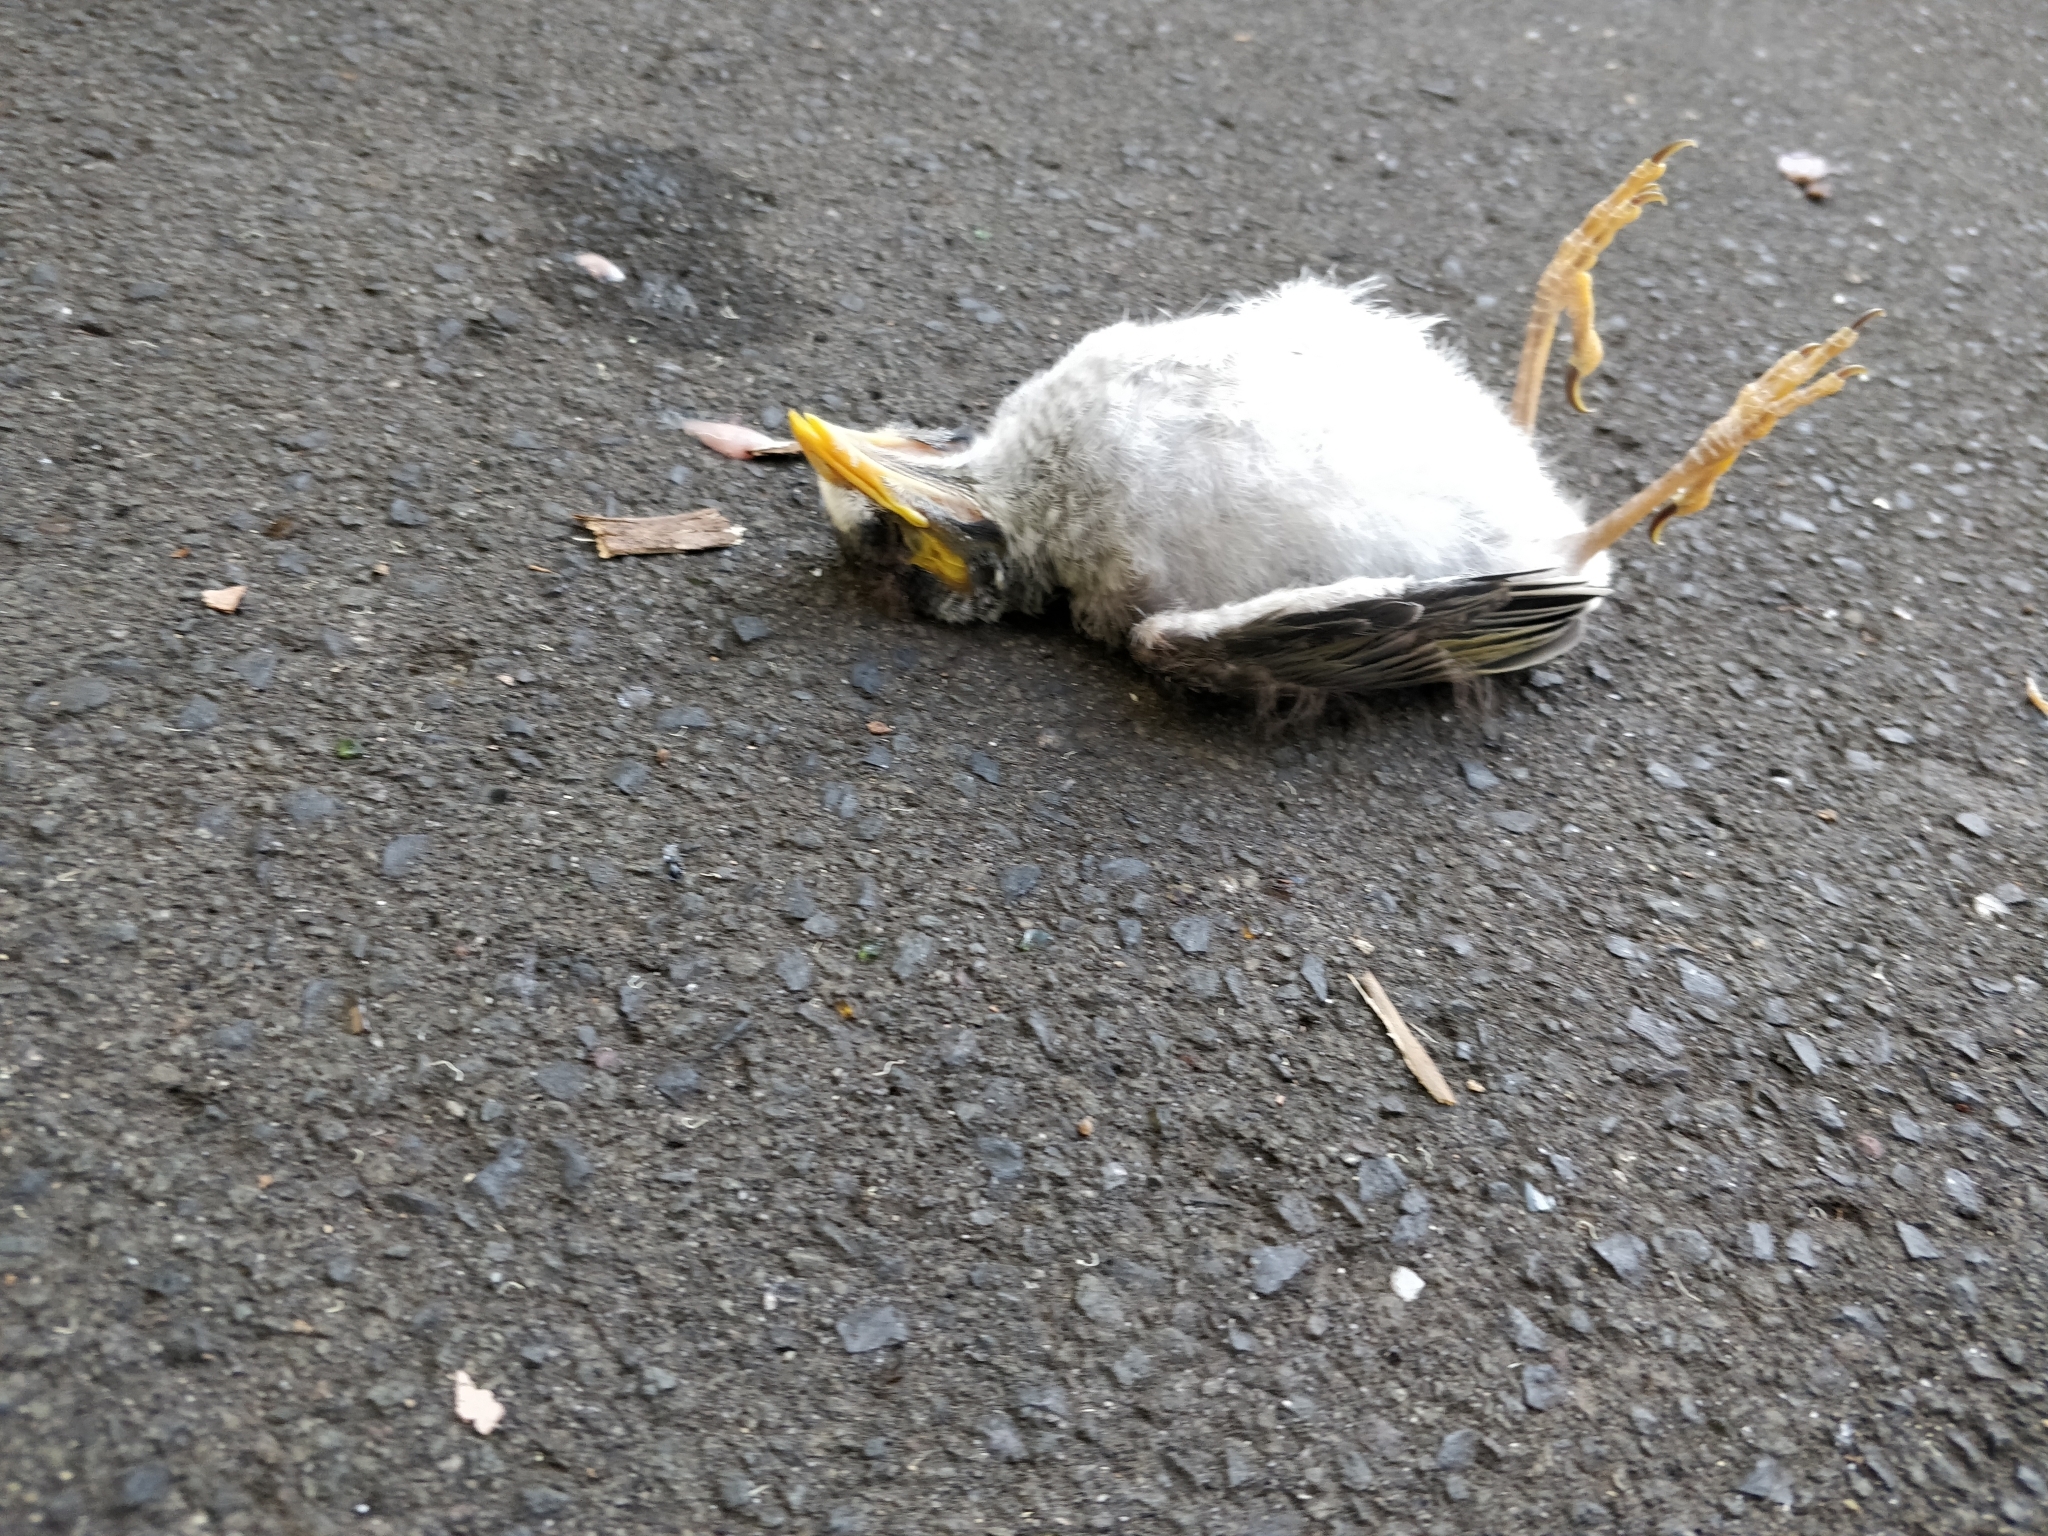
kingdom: Animalia
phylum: Chordata
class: Aves
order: Passeriformes
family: Meliphagidae
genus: Manorina
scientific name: Manorina melanocephala
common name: Noisy miner
